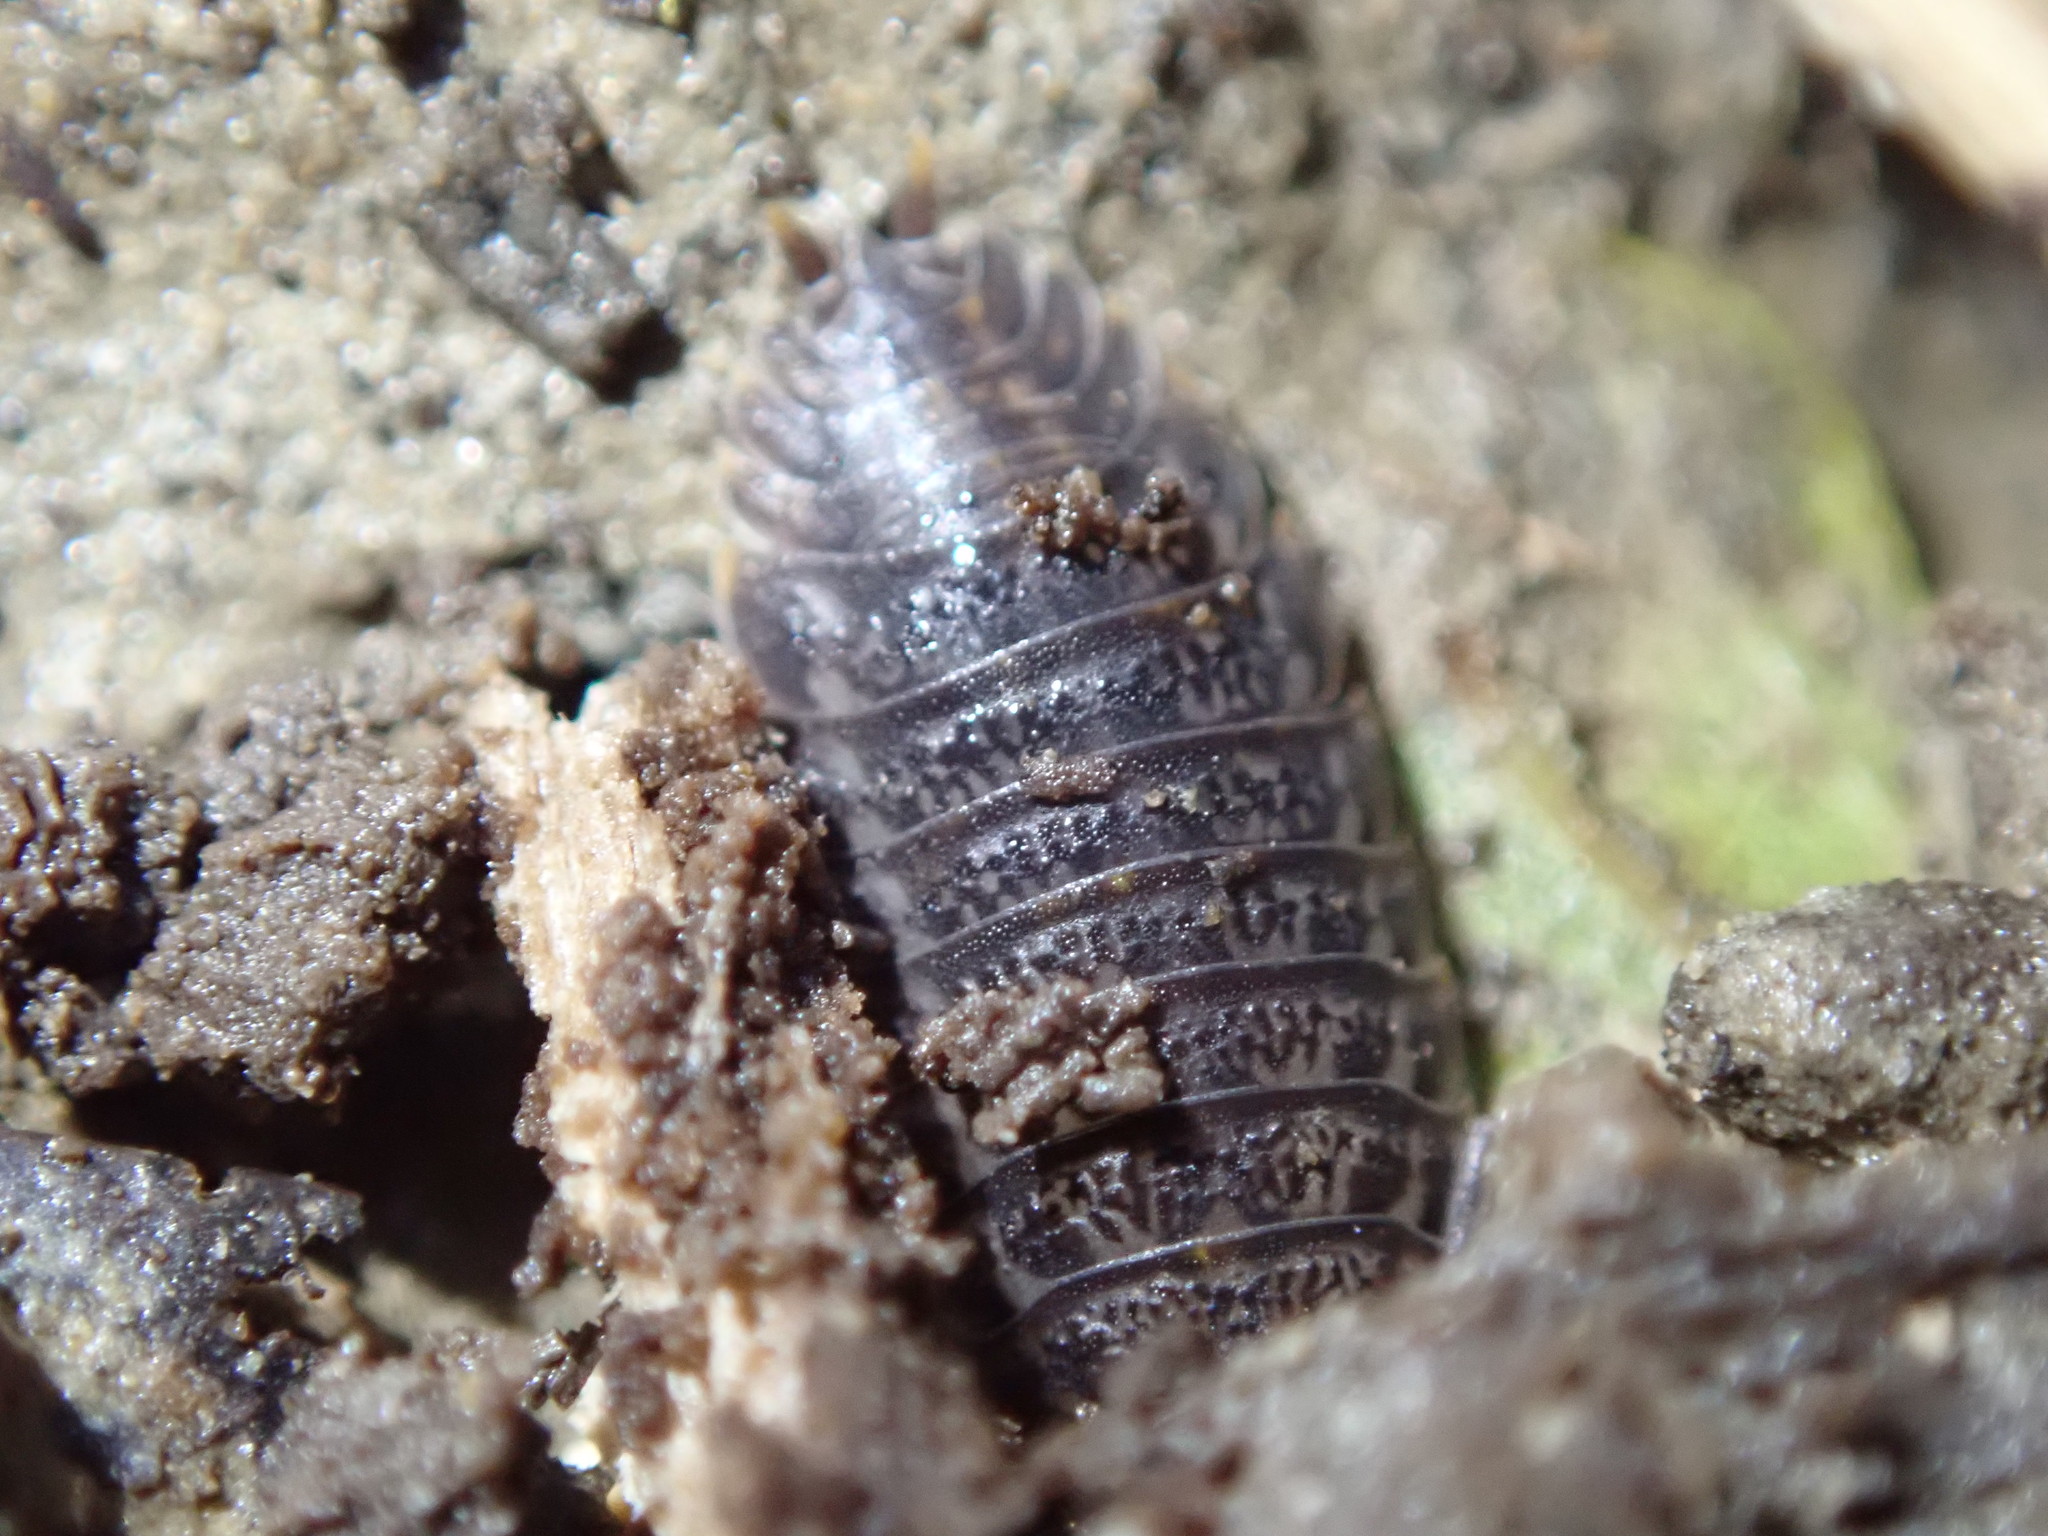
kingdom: Animalia
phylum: Arthropoda
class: Malacostraca
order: Isopoda
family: Trachelipodidae
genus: Trachelipus
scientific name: Trachelipus rathkii
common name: Isopod
